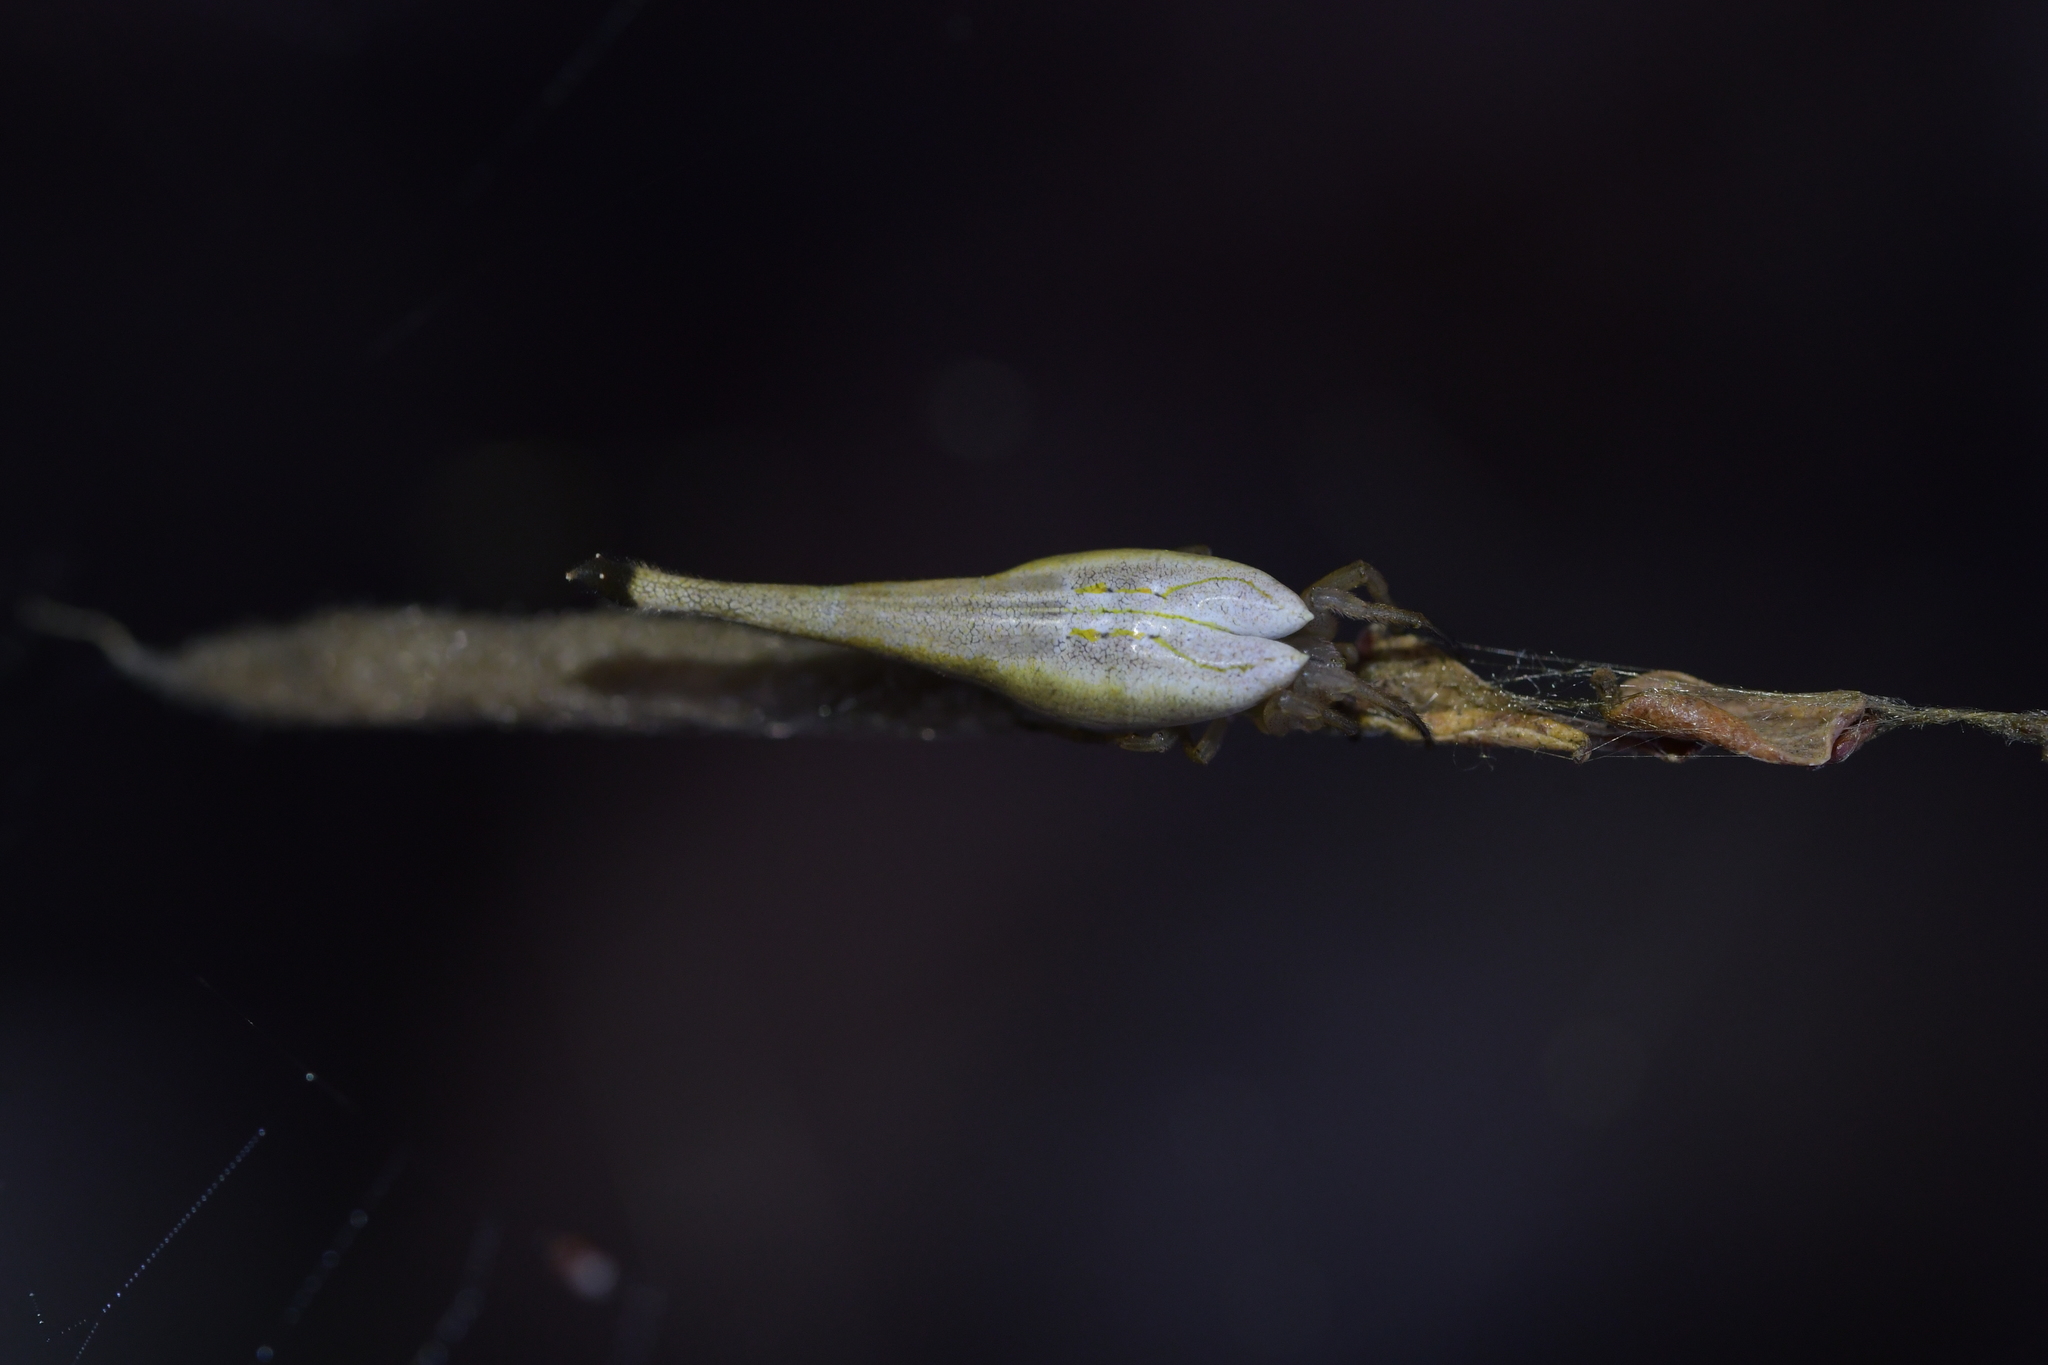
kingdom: Animalia
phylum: Arthropoda
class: Arachnida
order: Araneae
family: Araneidae
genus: Arachnura
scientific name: Arachnura feredayi
